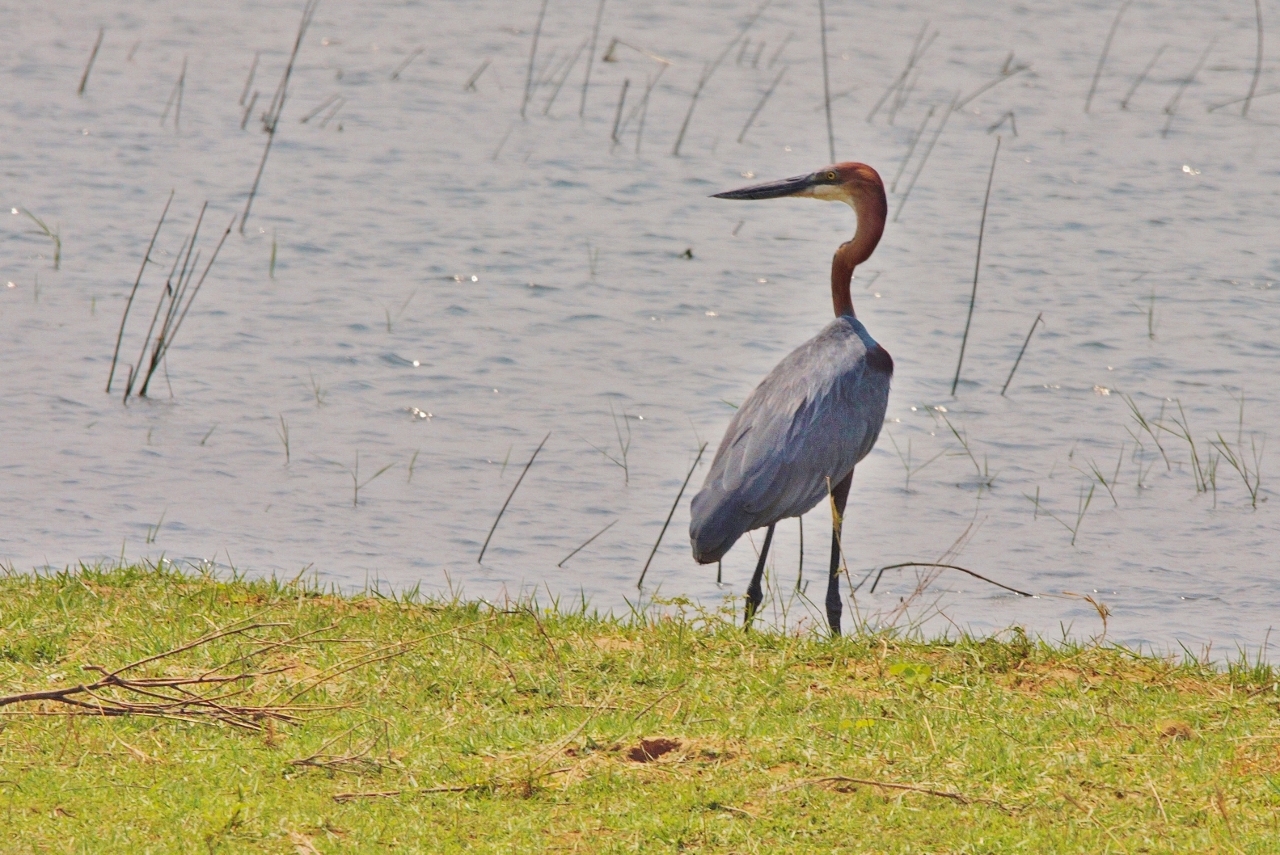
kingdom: Animalia
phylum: Chordata
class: Aves
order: Pelecaniformes
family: Ardeidae
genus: Ardea
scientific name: Ardea goliath
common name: Goliath heron
